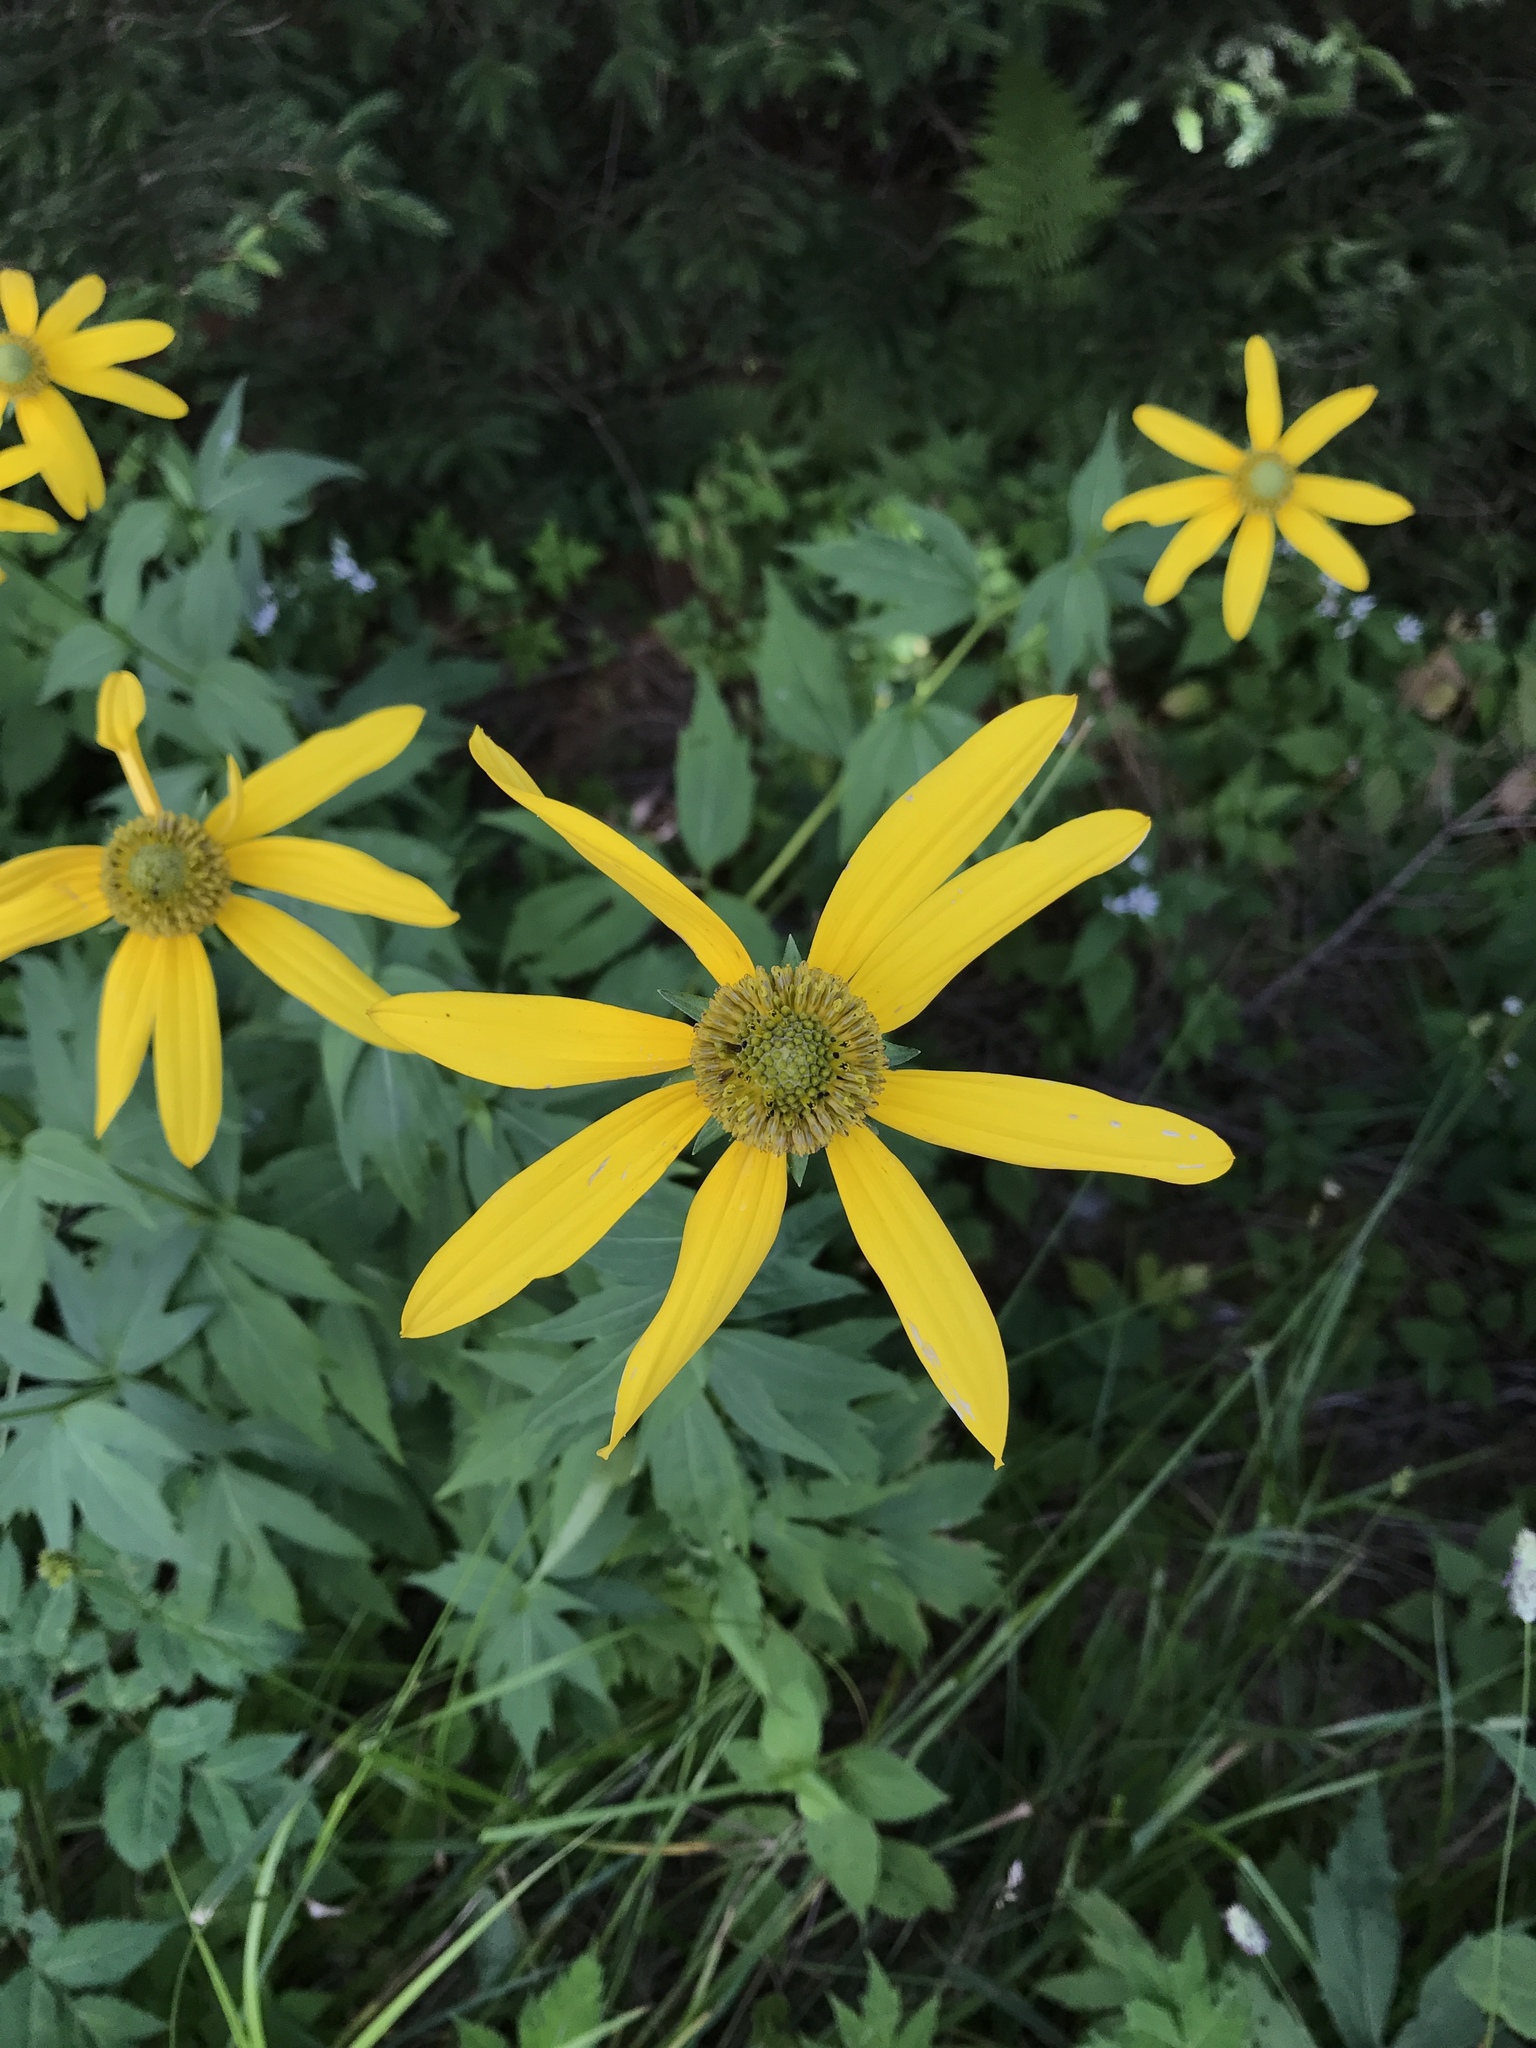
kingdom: Plantae
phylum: Tracheophyta
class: Magnoliopsida
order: Asterales
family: Asteraceae
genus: Rudbeckia
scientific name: Rudbeckia laciniata
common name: Coneflower
